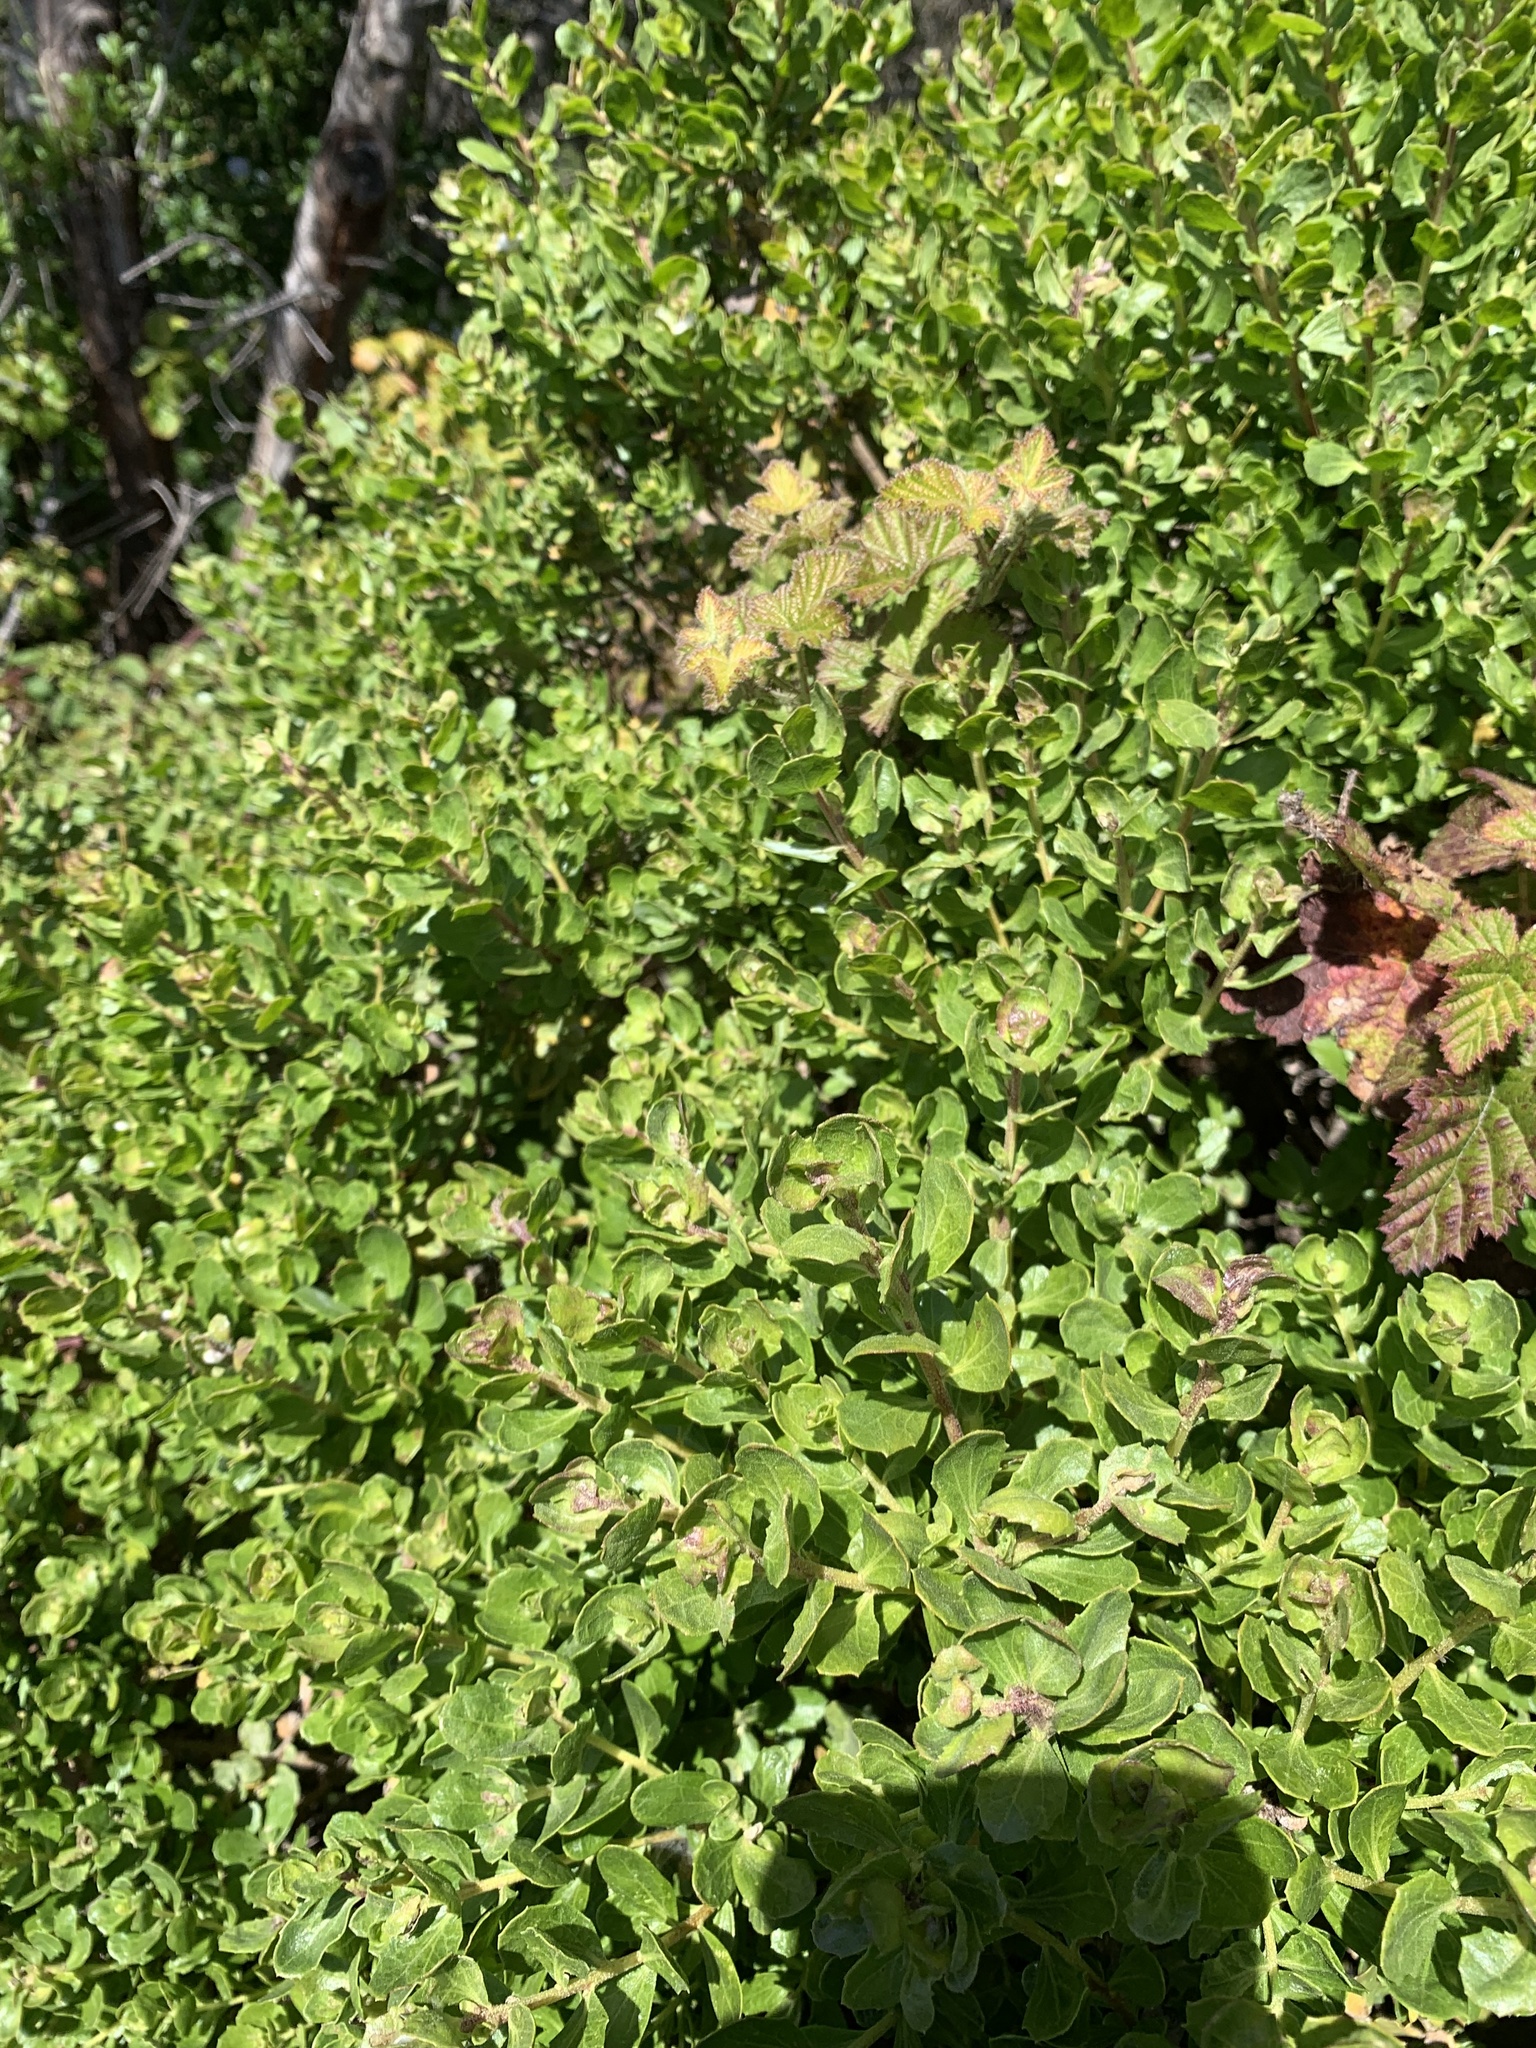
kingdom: Plantae
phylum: Tracheophyta
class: Magnoliopsida
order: Asterales
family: Asteraceae
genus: Baccharis
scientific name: Baccharis pilularis
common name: Coyotebrush
